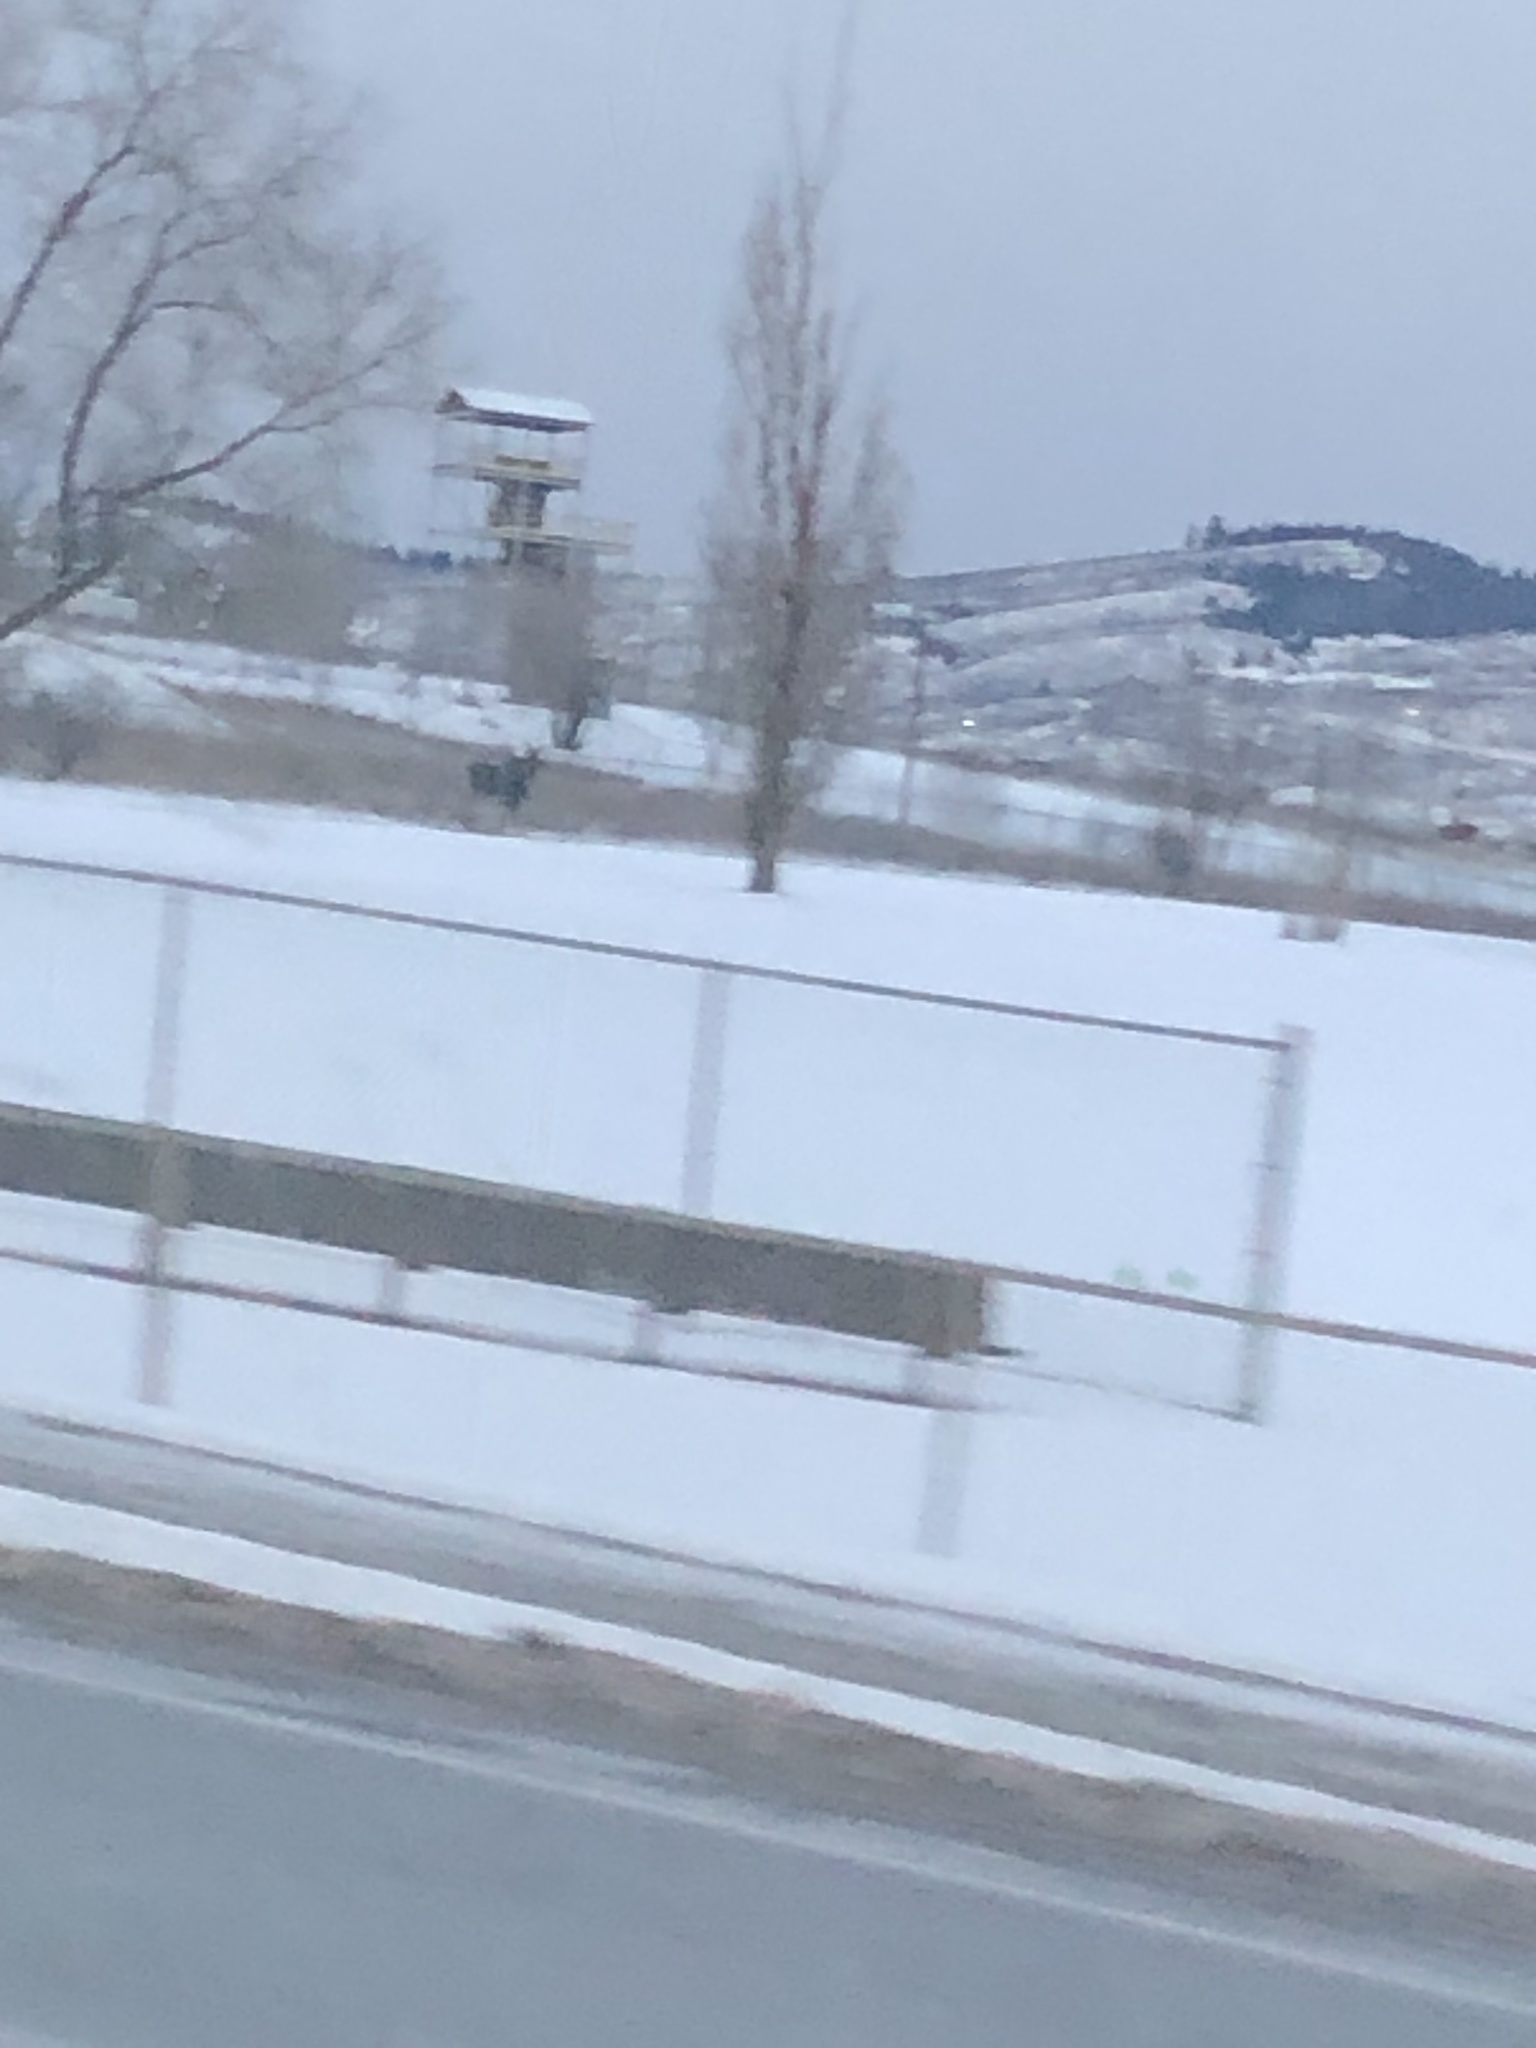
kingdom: Animalia
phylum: Chordata
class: Mammalia
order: Artiodactyla
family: Cervidae
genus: Alces
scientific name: Alces alces
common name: Moose
